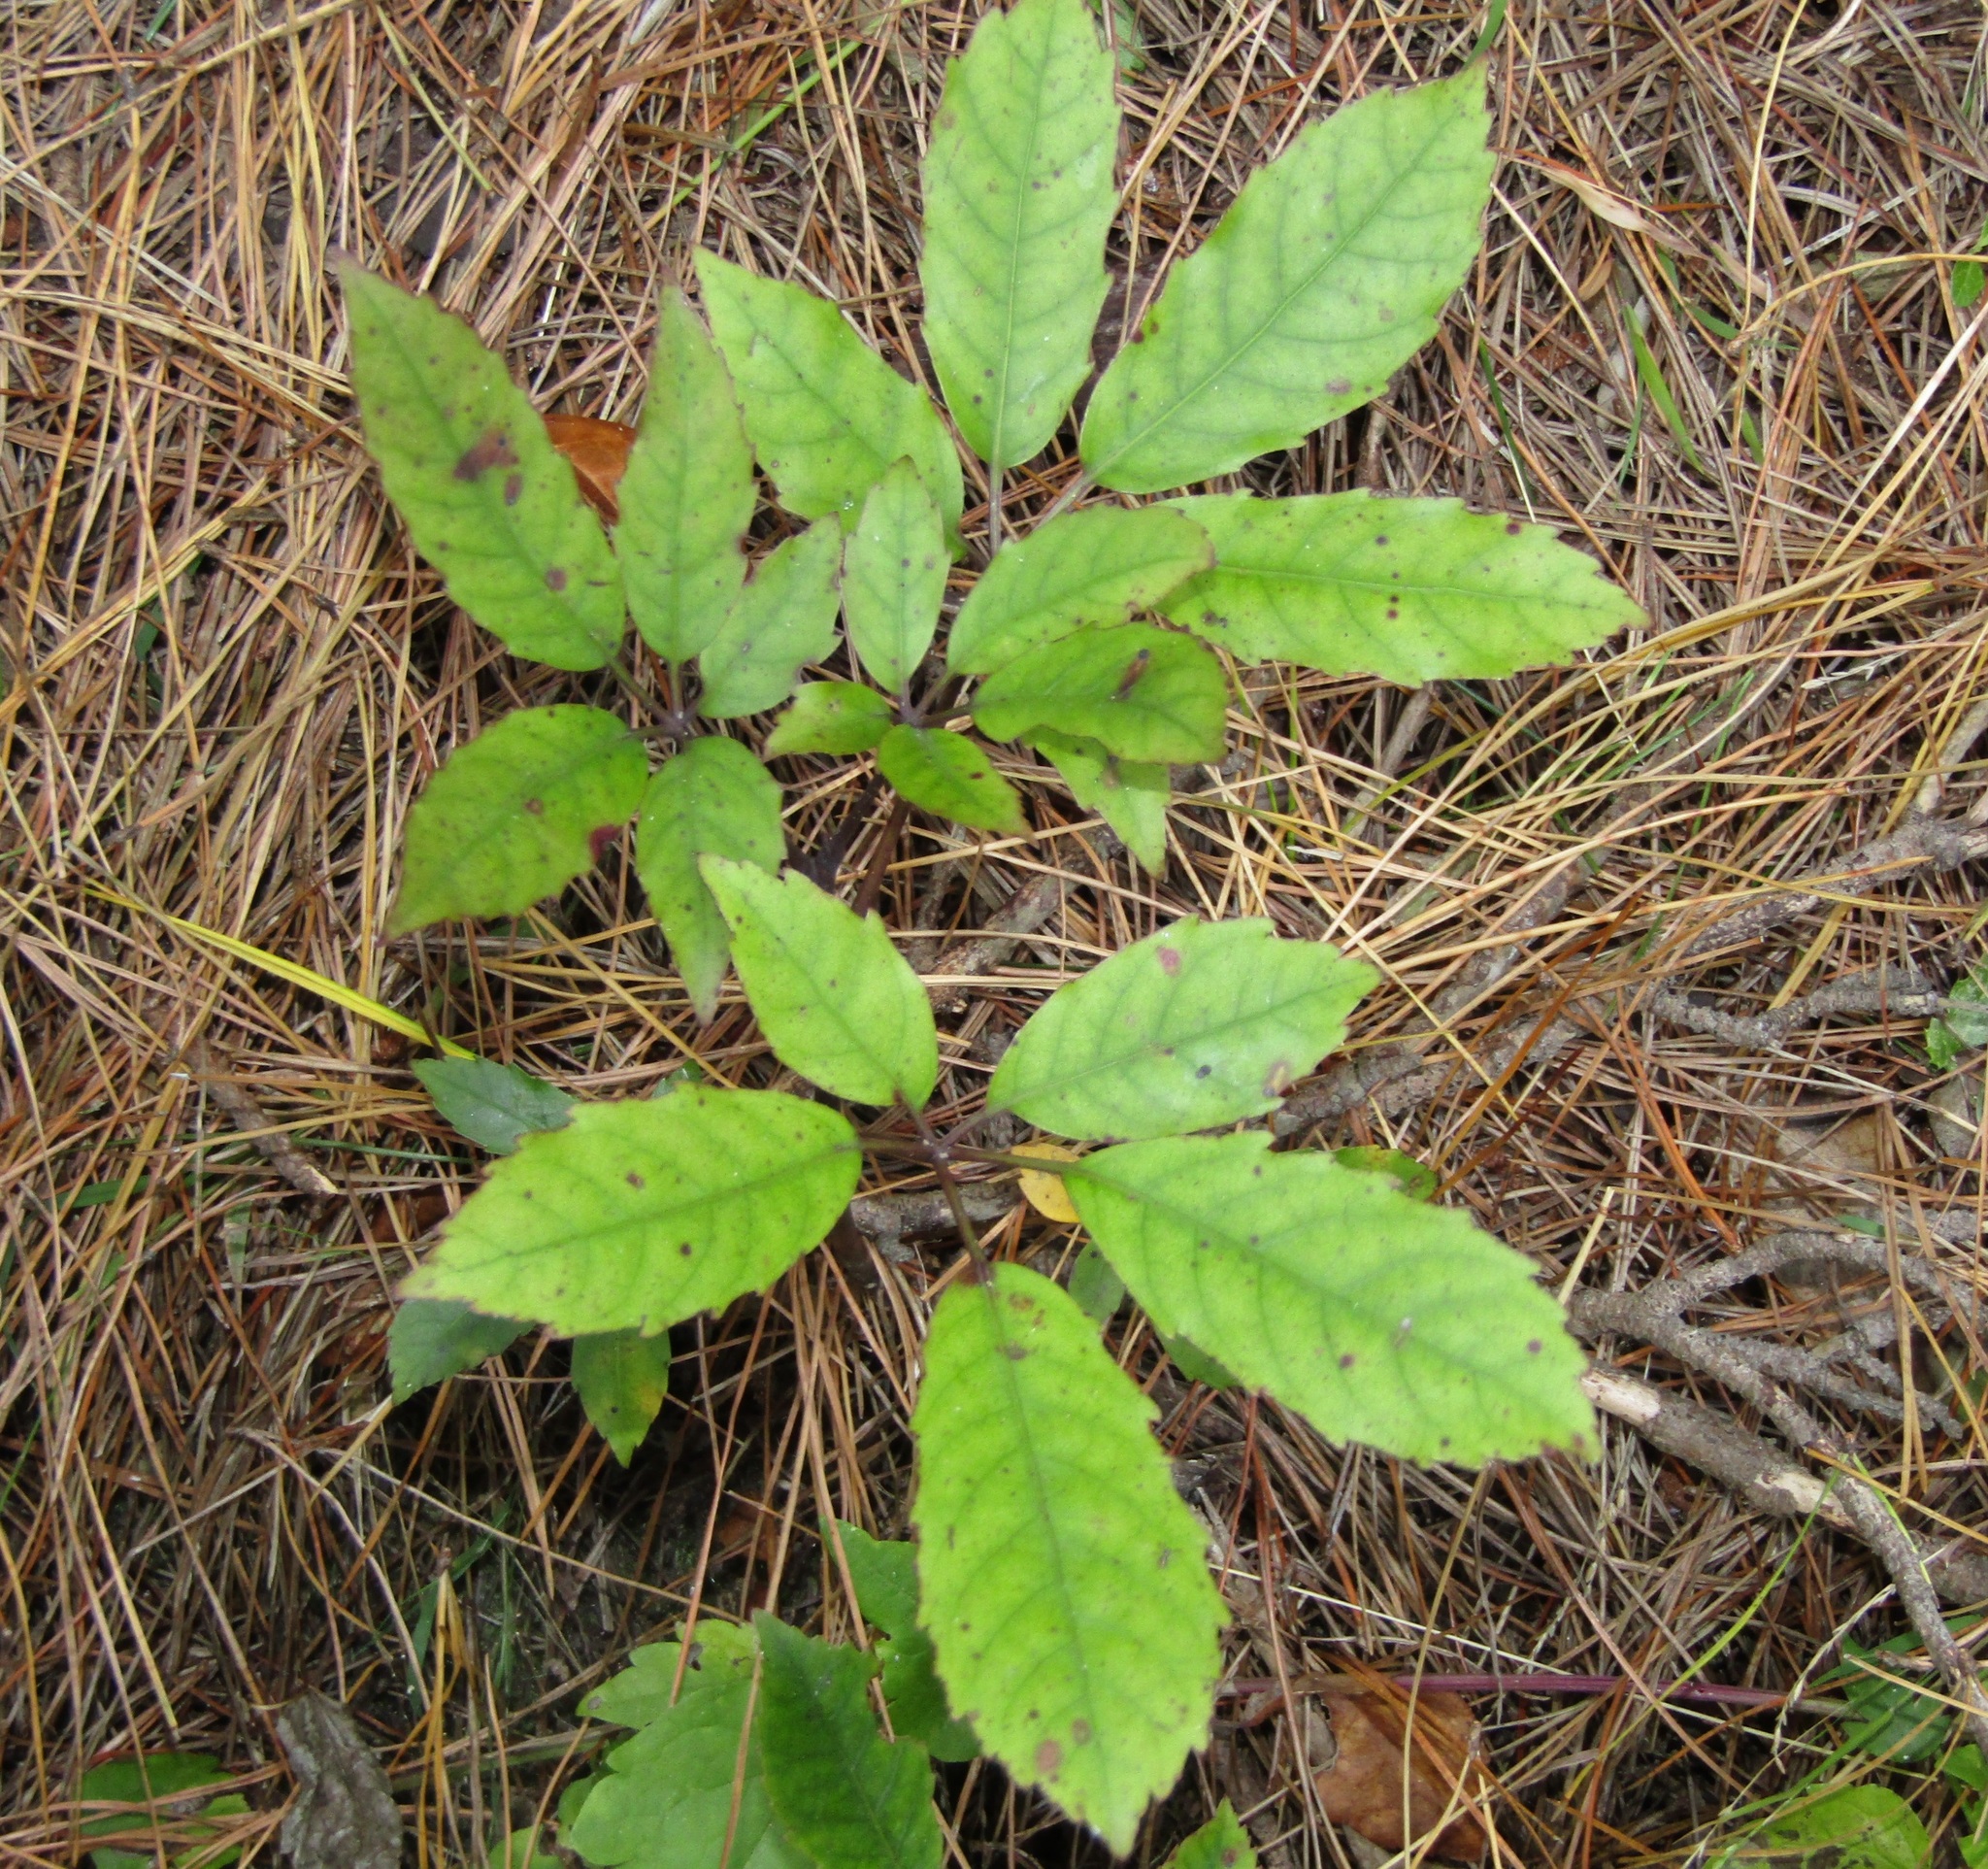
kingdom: Plantae
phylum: Tracheophyta
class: Magnoliopsida
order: Apiales
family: Araliaceae
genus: Neopanax
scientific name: Neopanax arboreus
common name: Five-fingers
